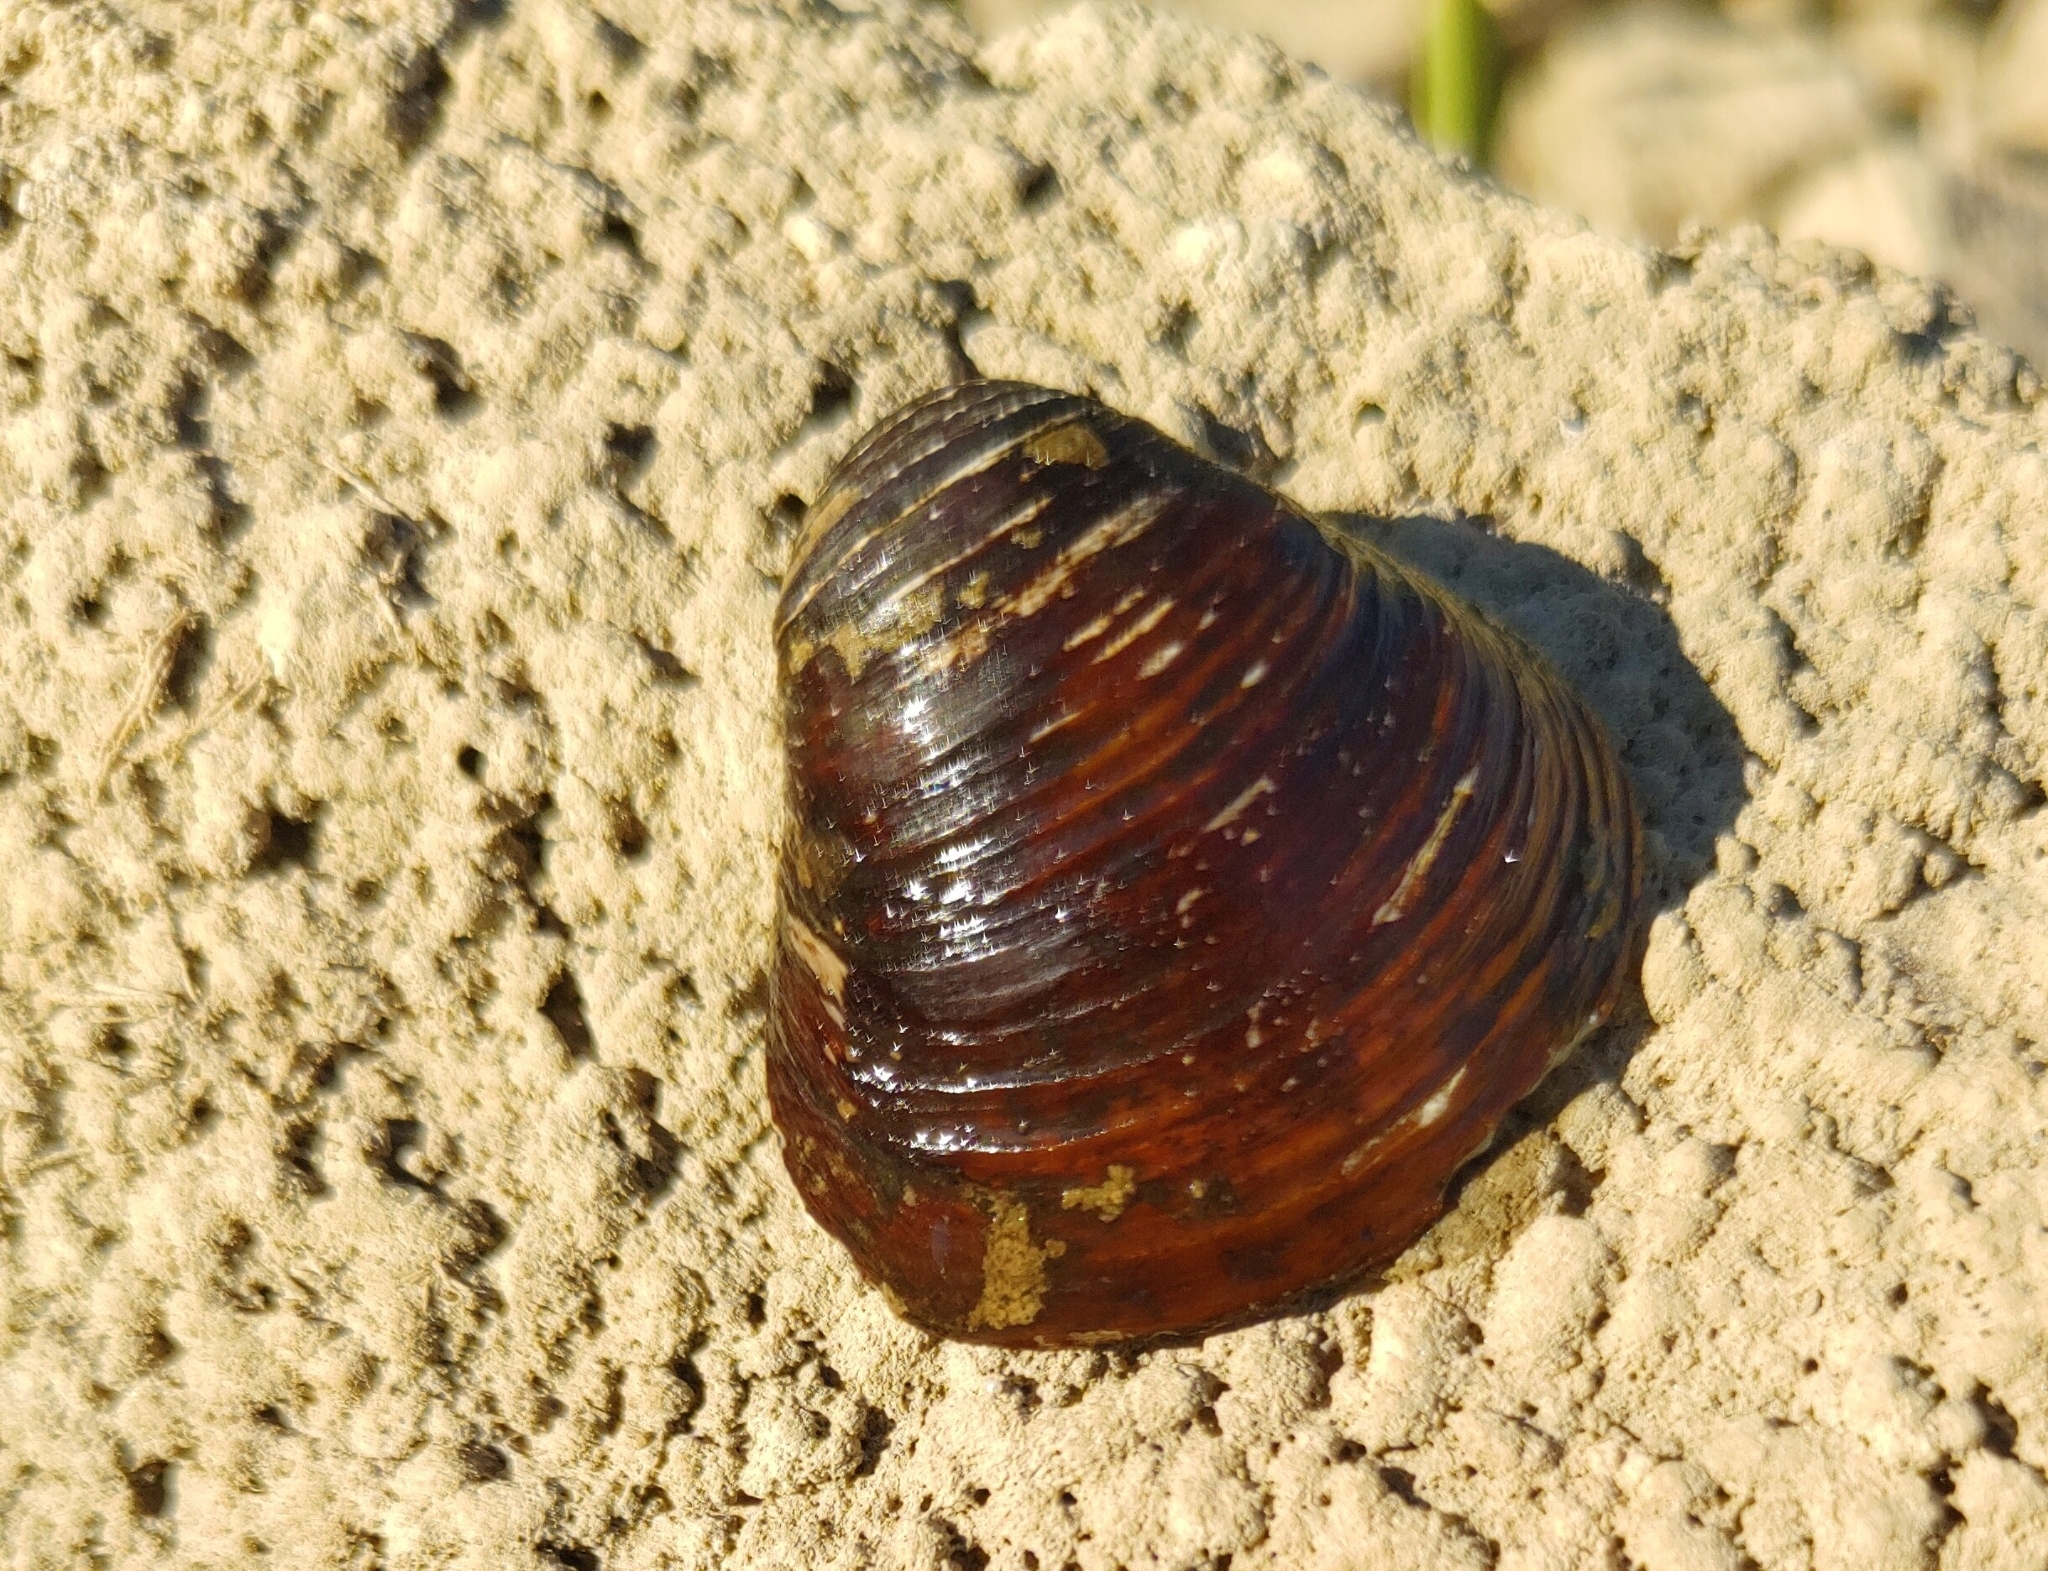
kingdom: Animalia
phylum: Mollusca
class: Bivalvia
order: Venerida
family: Cyrenidae
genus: Corbicula
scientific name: Corbicula fluminea
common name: Asian clam
